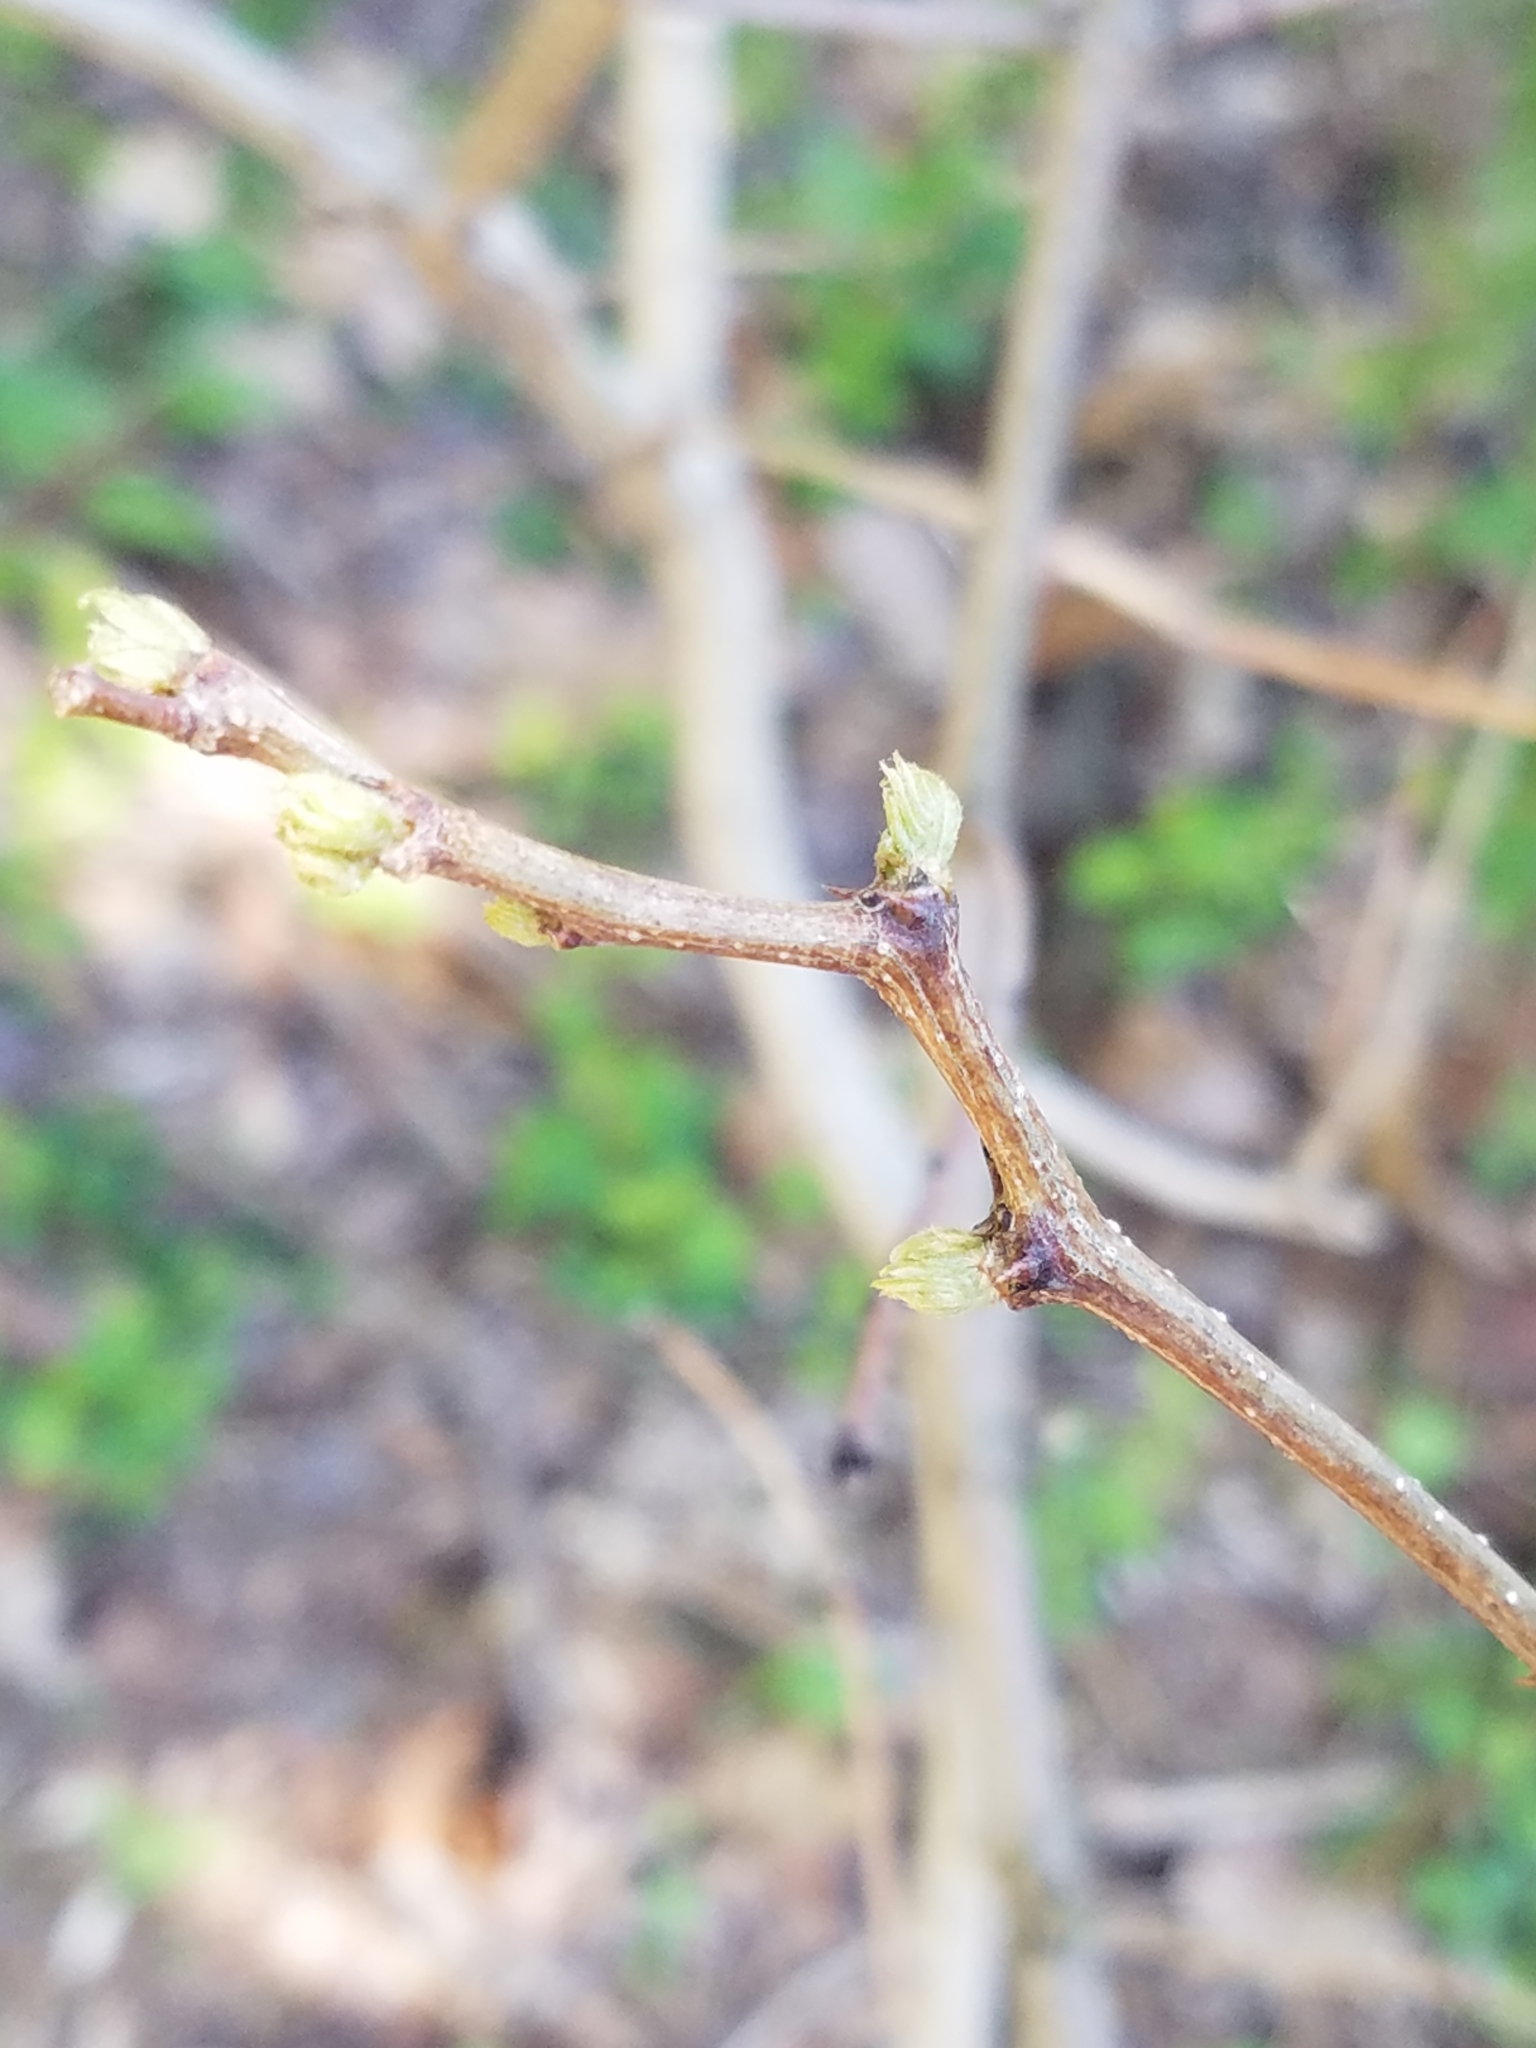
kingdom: Plantae
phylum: Tracheophyta
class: Magnoliopsida
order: Fabales
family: Fabaceae
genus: Robinia
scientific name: Robinia pseudoacacia
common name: Black locust
